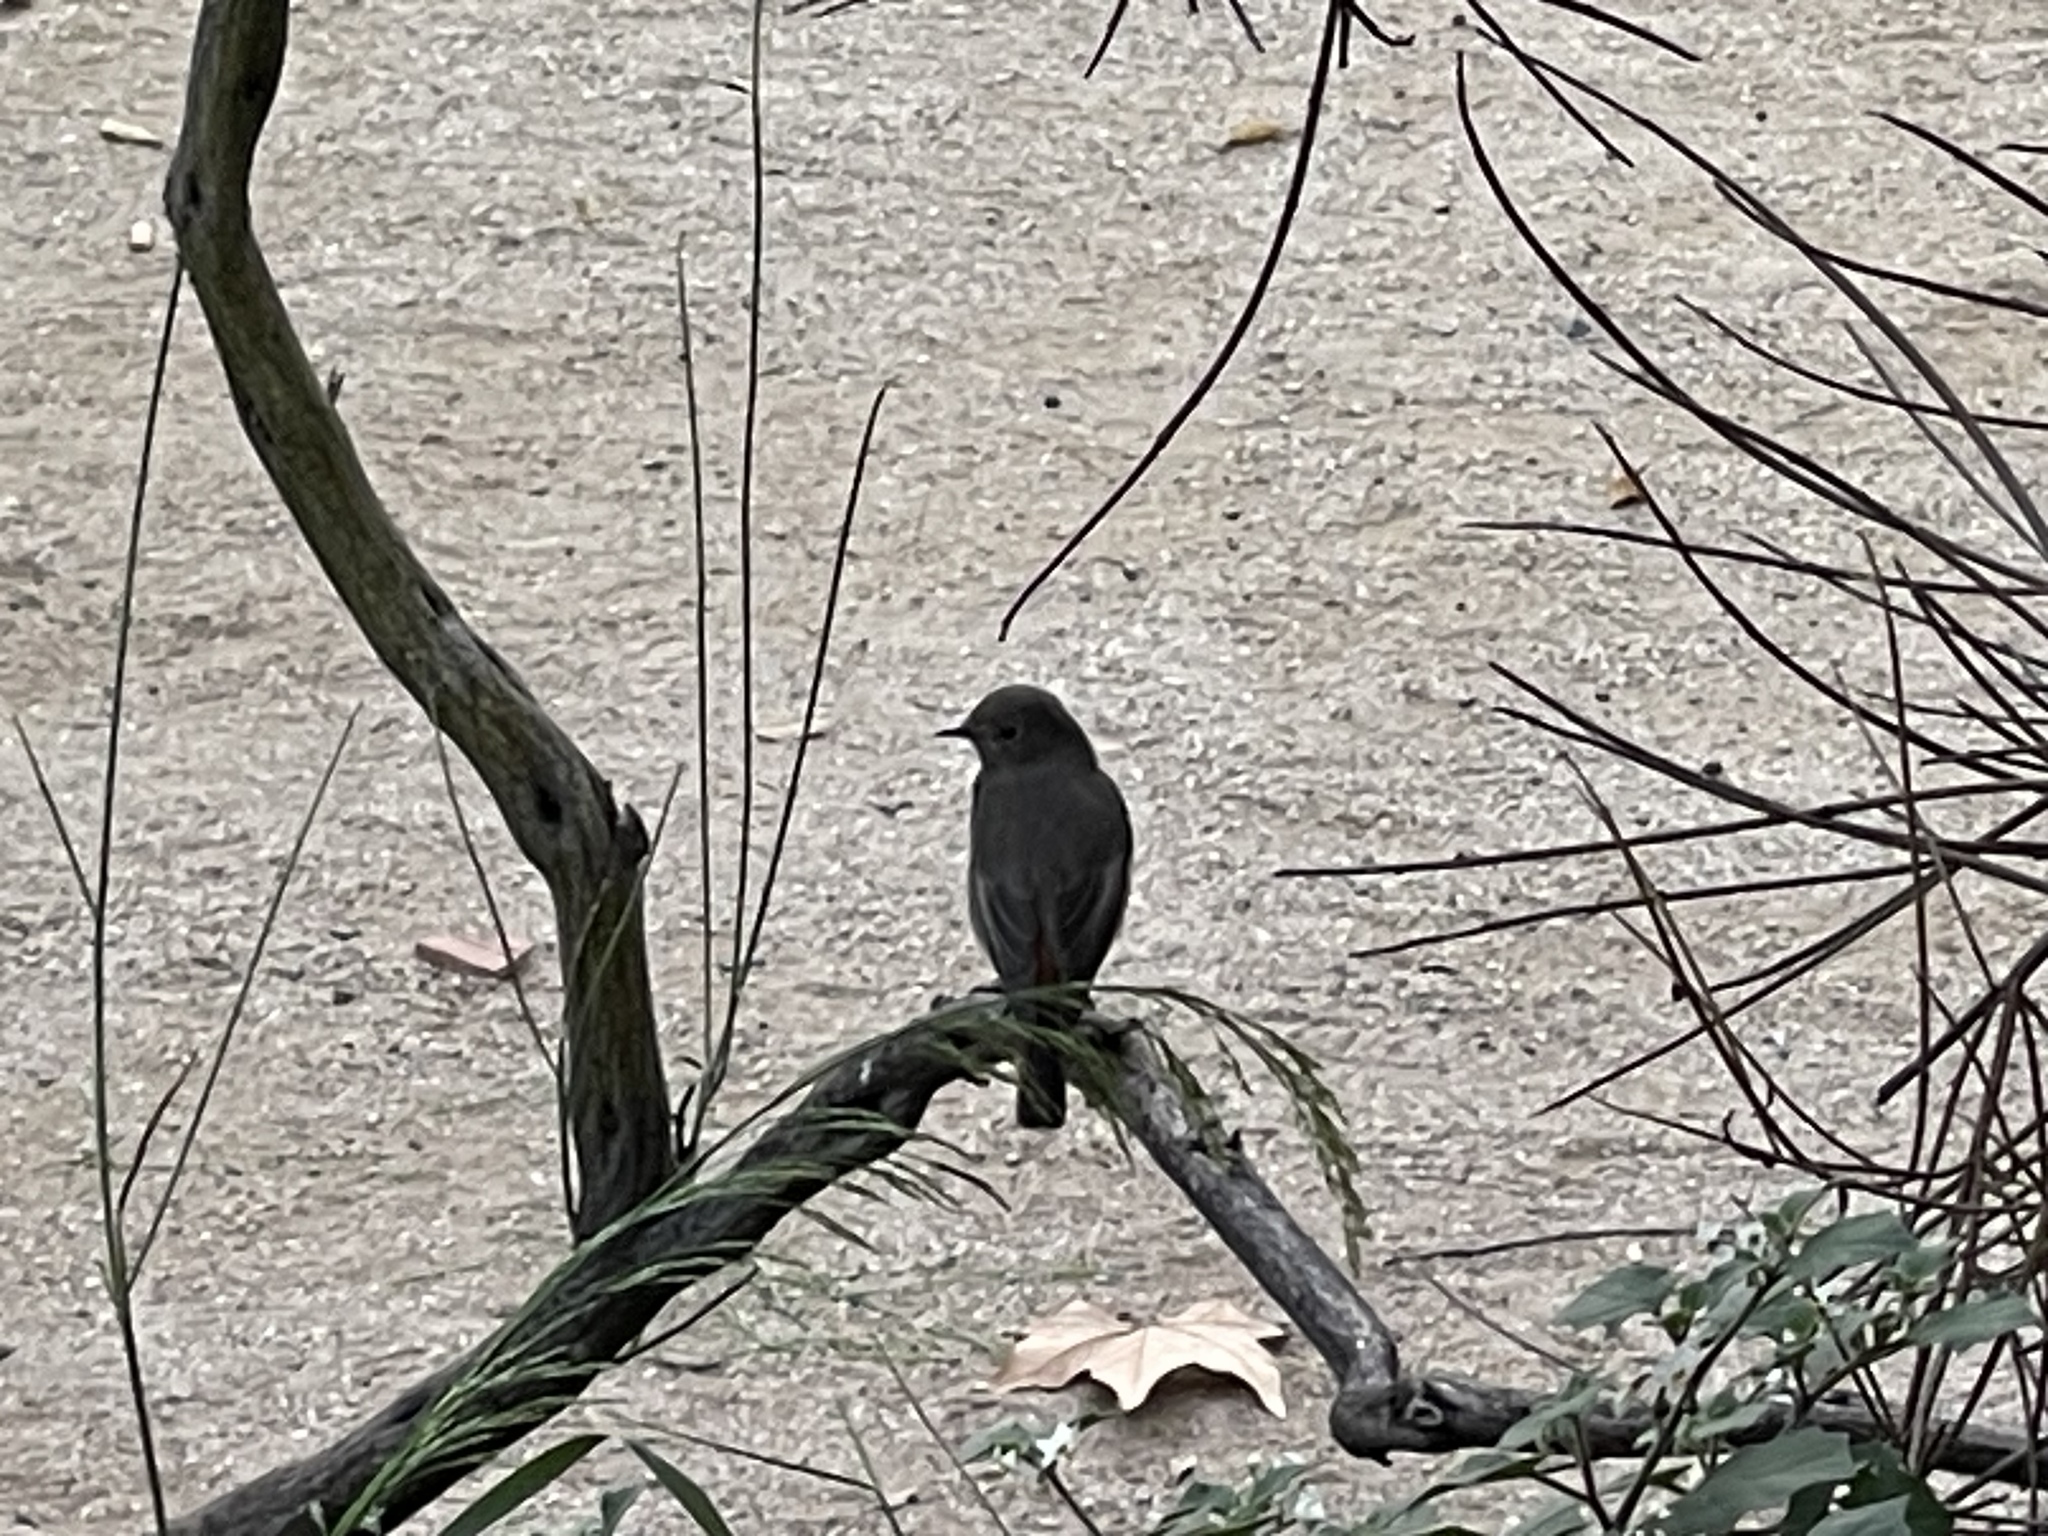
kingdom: Animalia
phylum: Chordata
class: Aves
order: Passeriformes
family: Muscicapidae
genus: Phoenicurus
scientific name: Phoenicurus ochruros
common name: Black redstart
